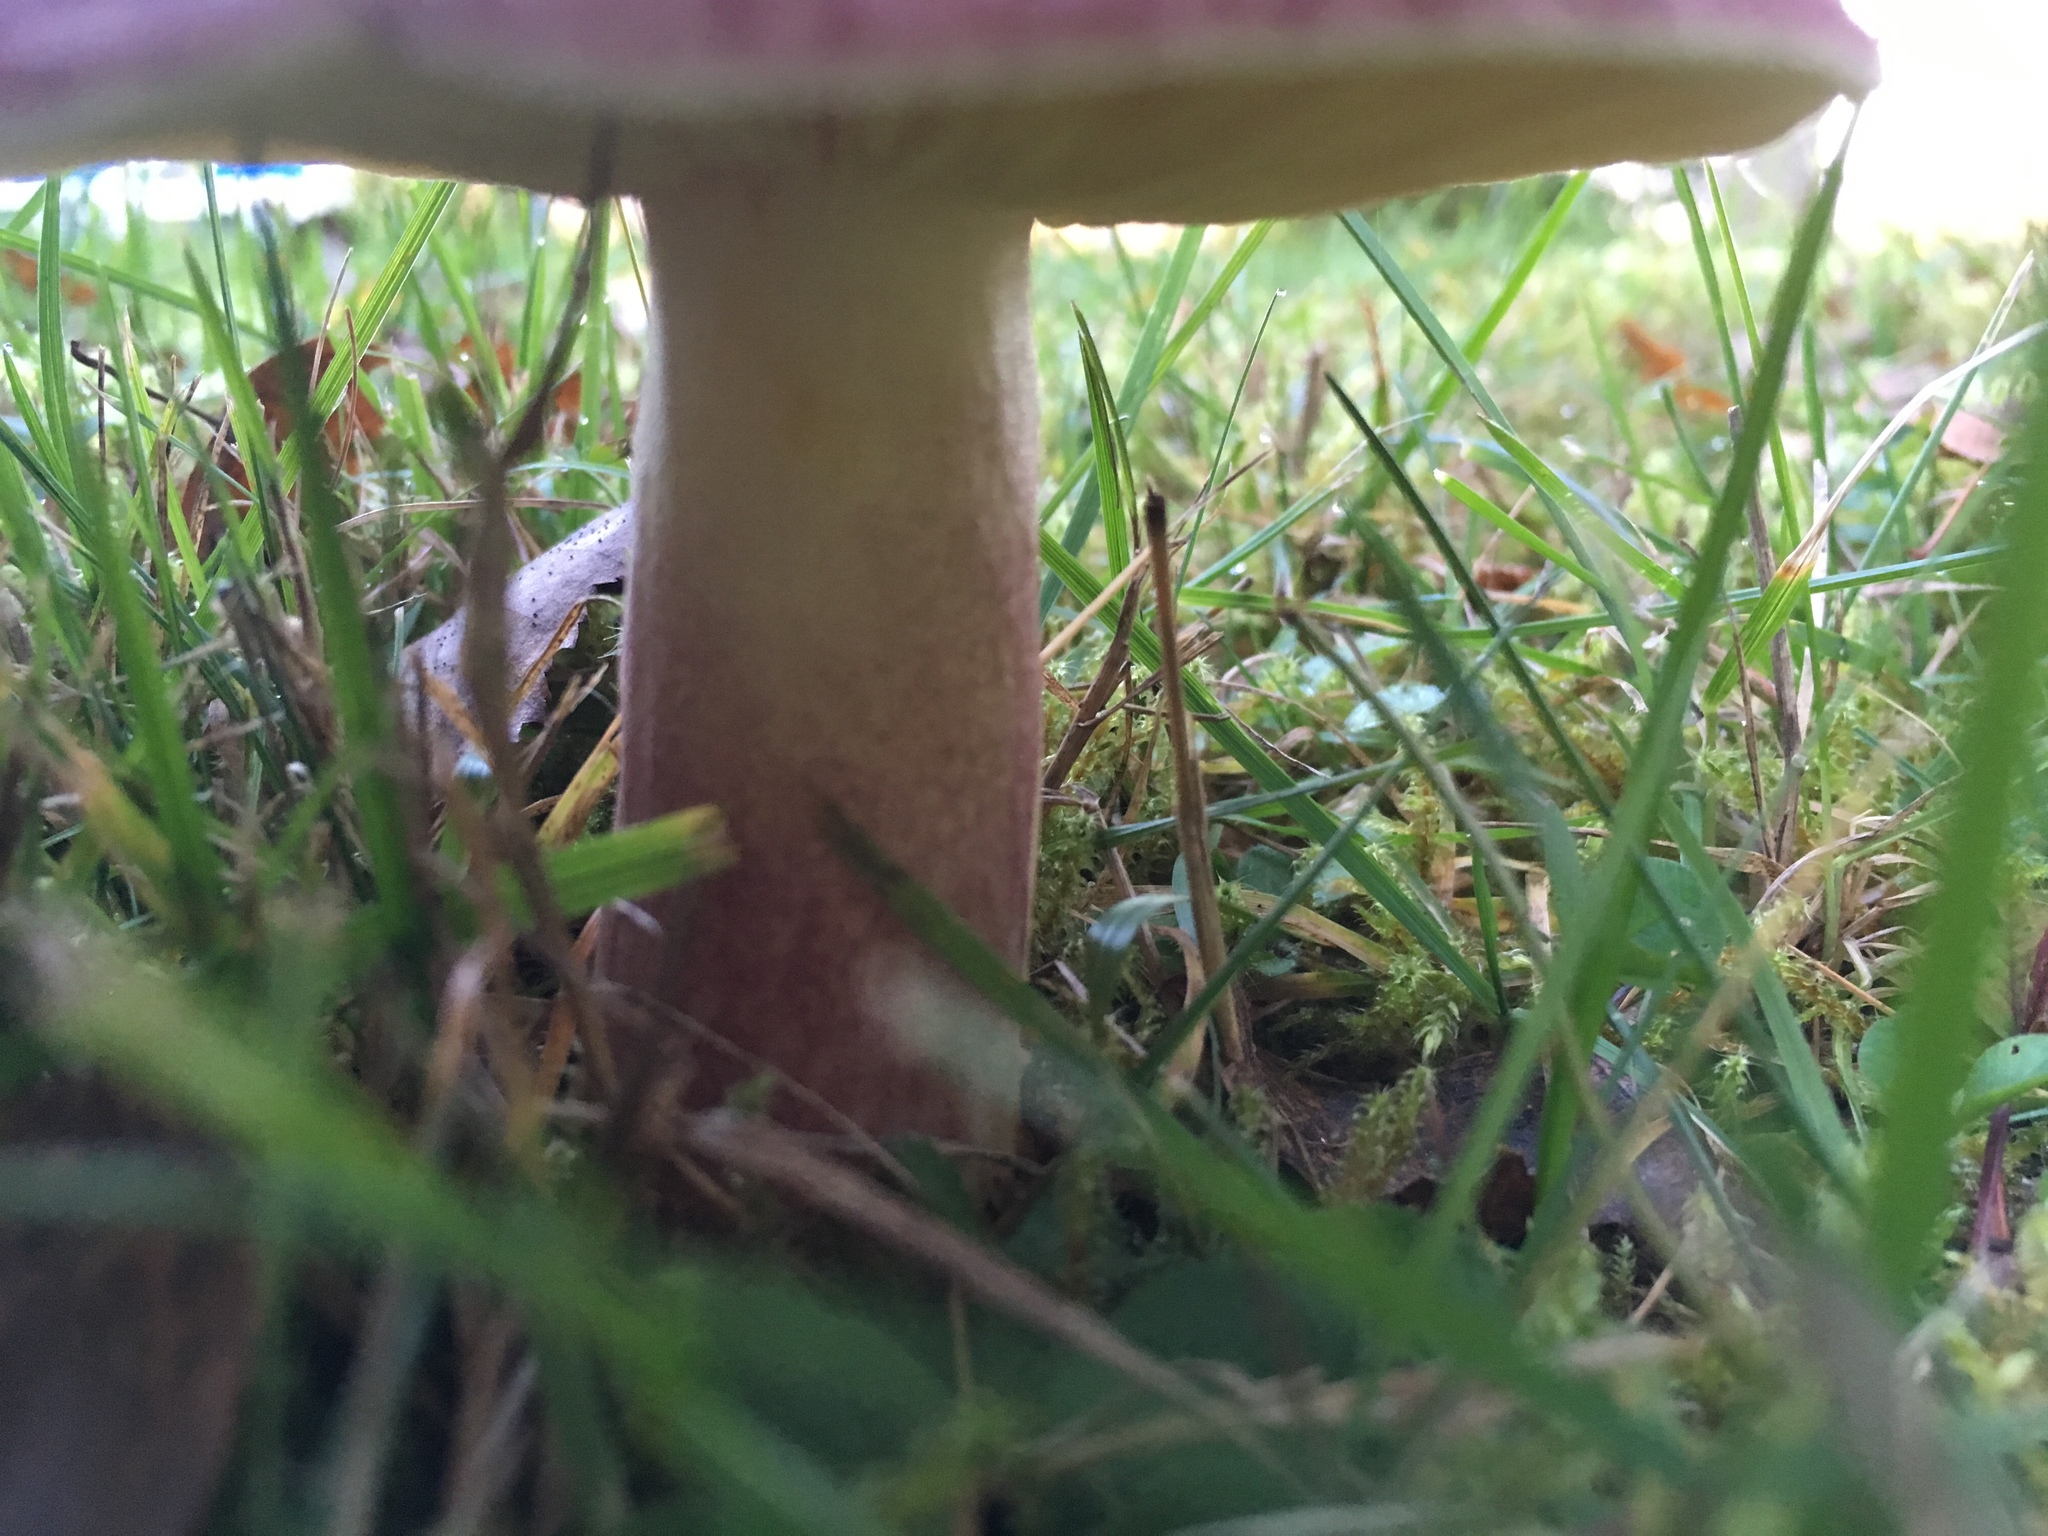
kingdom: Fungi
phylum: Basidiomycota
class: Agaricomycetes
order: Agaricales
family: Tricholomataceae
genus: Tricholomopsis
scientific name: Tricholomopsis rutilans
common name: Plums and custard
